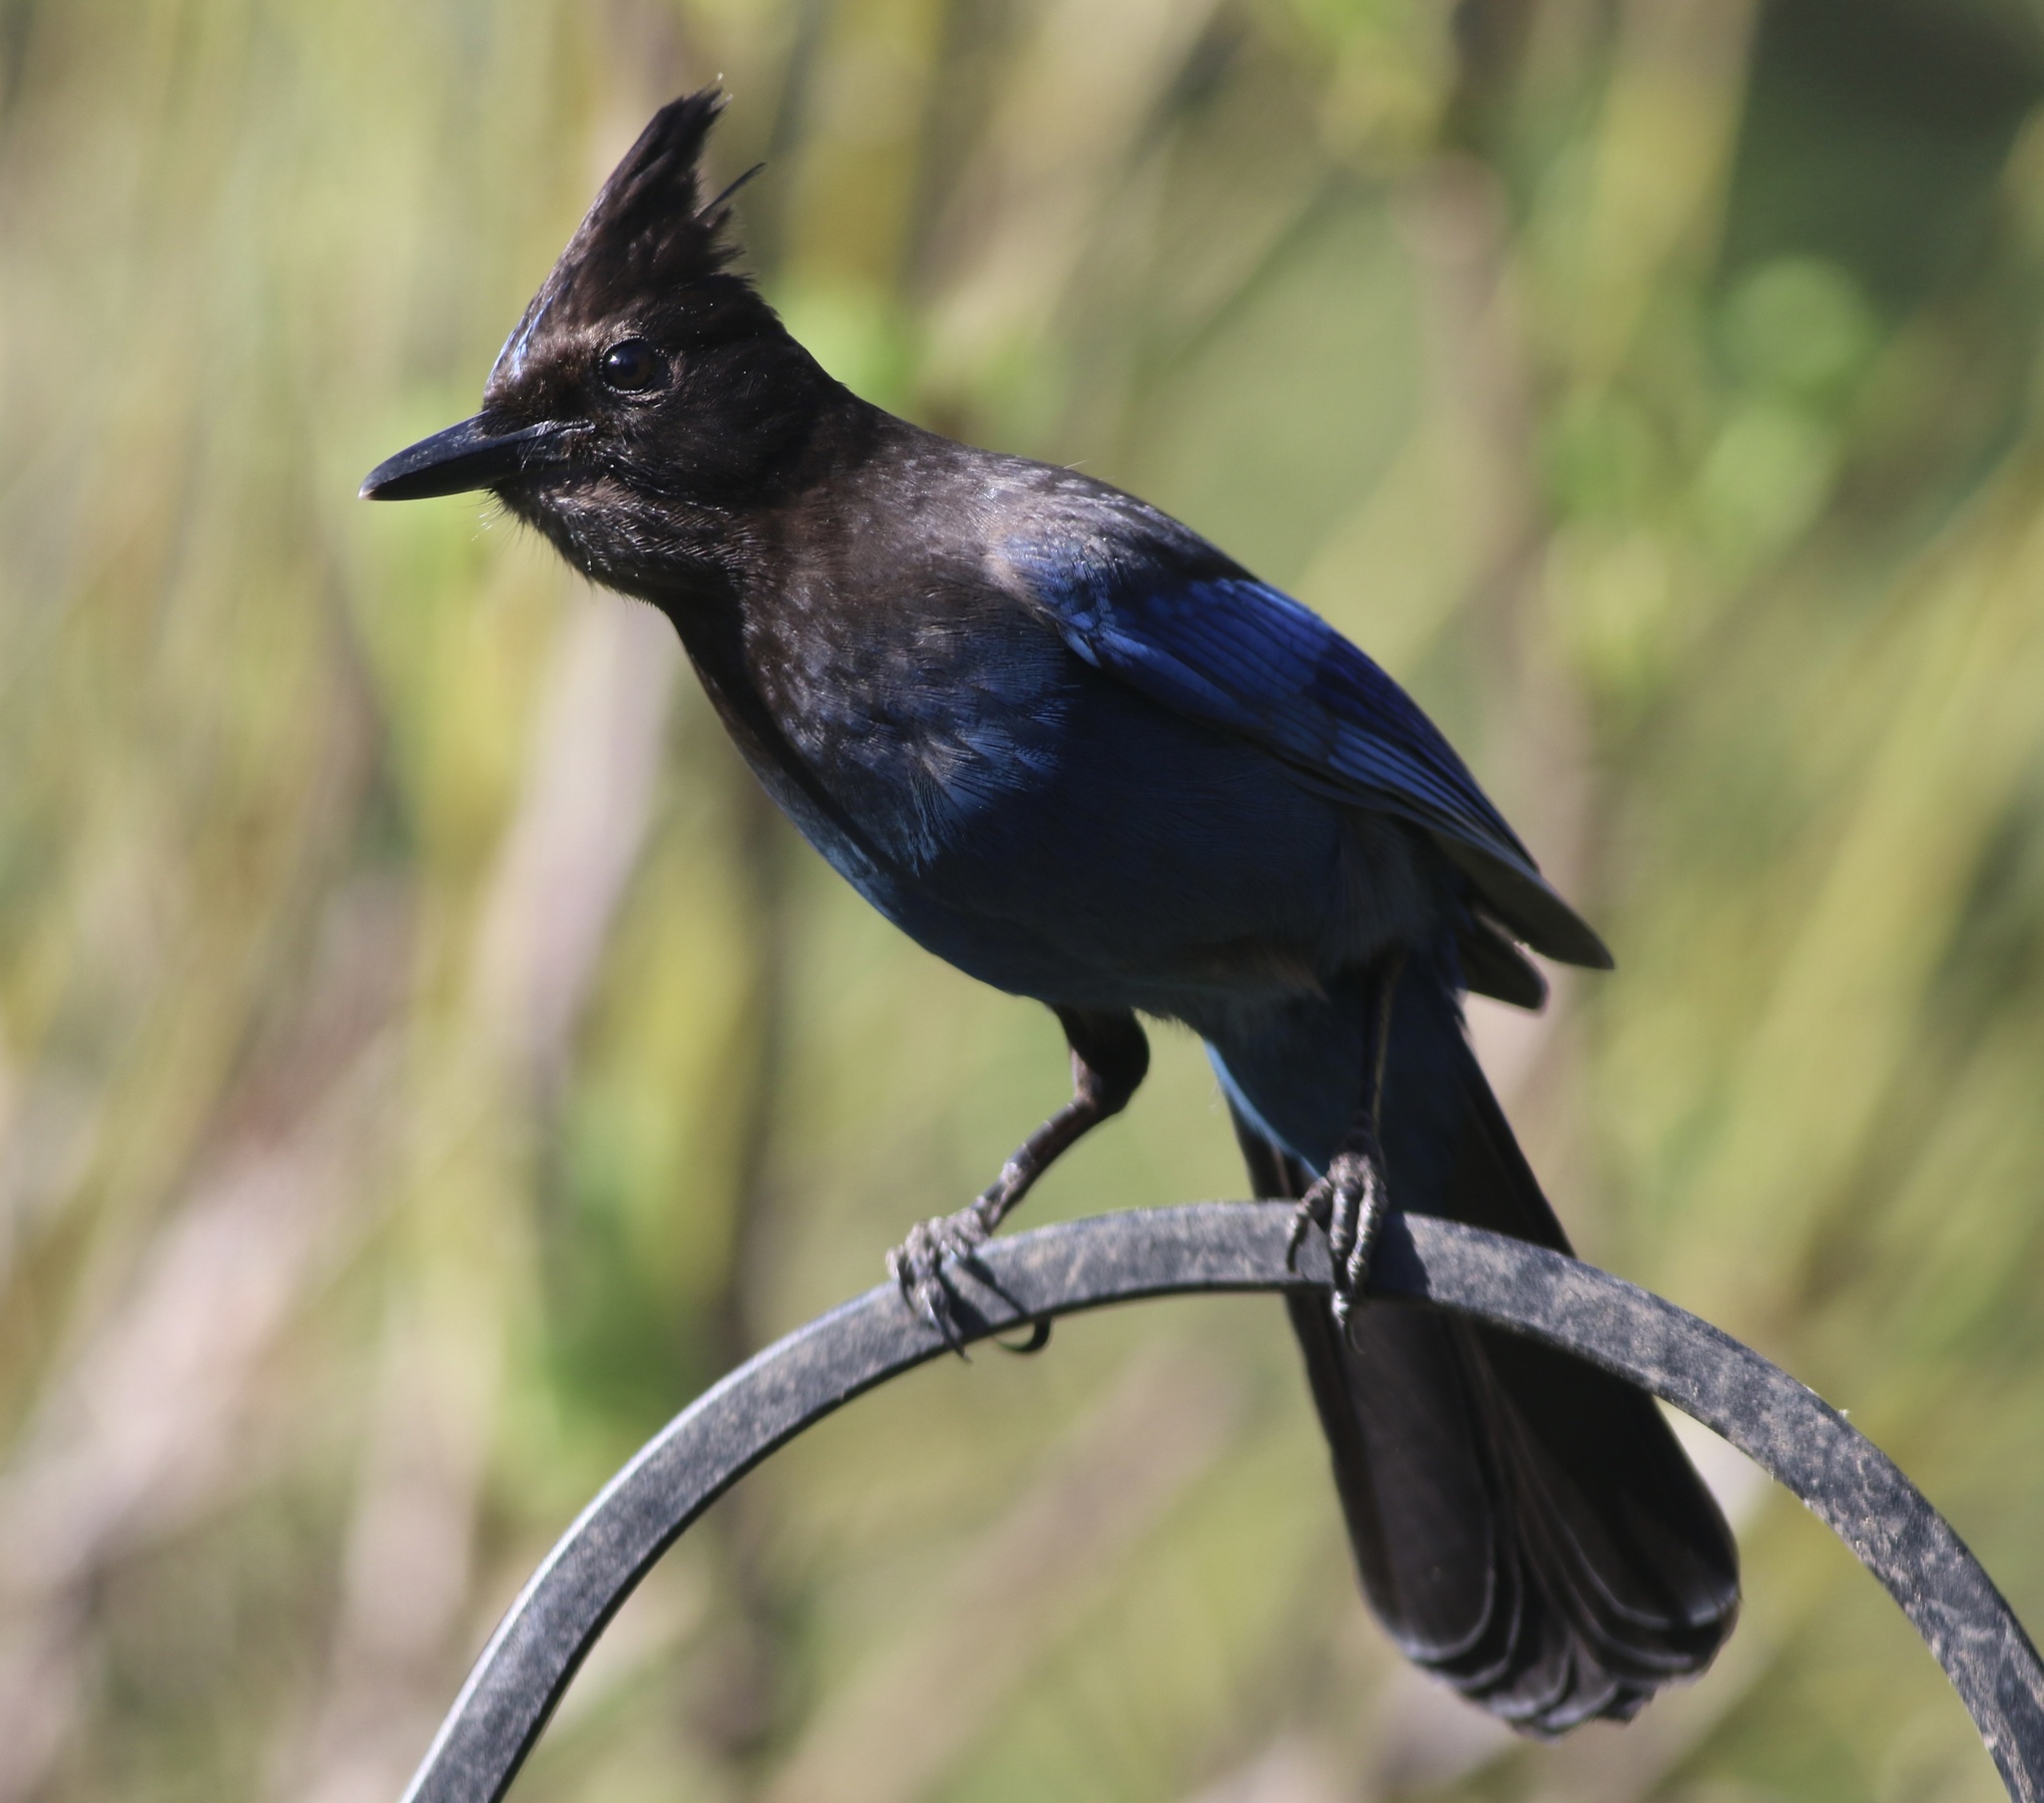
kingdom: Animalia
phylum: Chordata
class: Aves
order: Passeriformes
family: Corvidae
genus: Cyanocitta
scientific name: Cyanocitta stelleri
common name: Steller's jay
